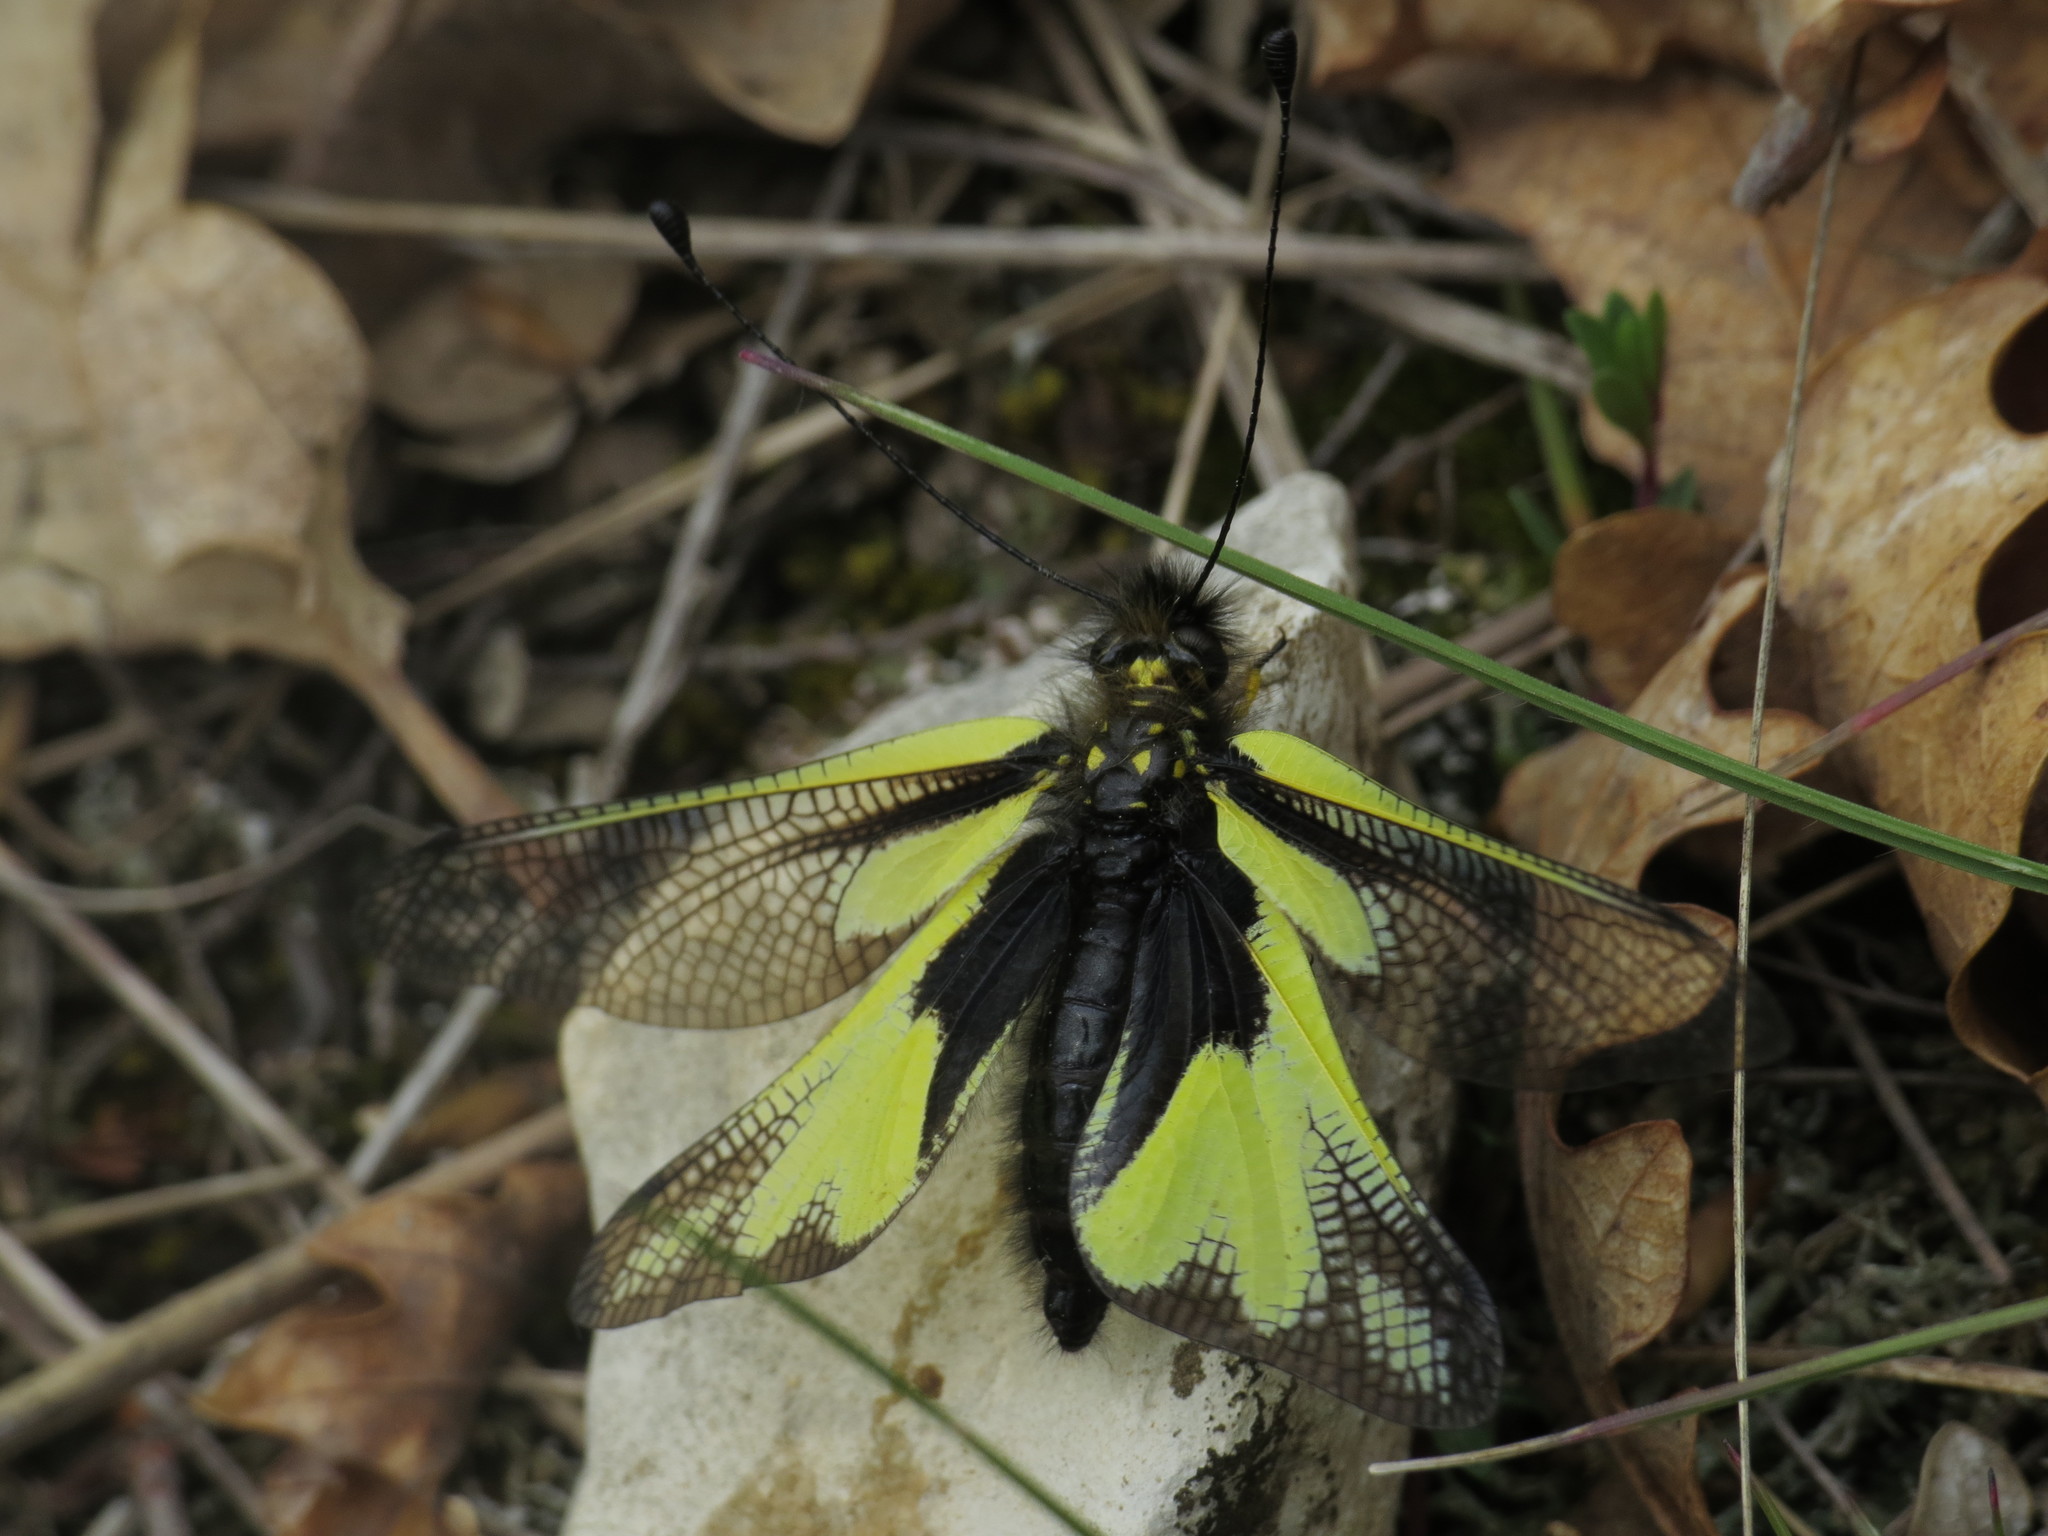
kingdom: Animalia
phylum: Arthropoda
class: Insecta
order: Neuroptera
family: Ascalaphidae
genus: Libelloides
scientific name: Libelloides coccajus
